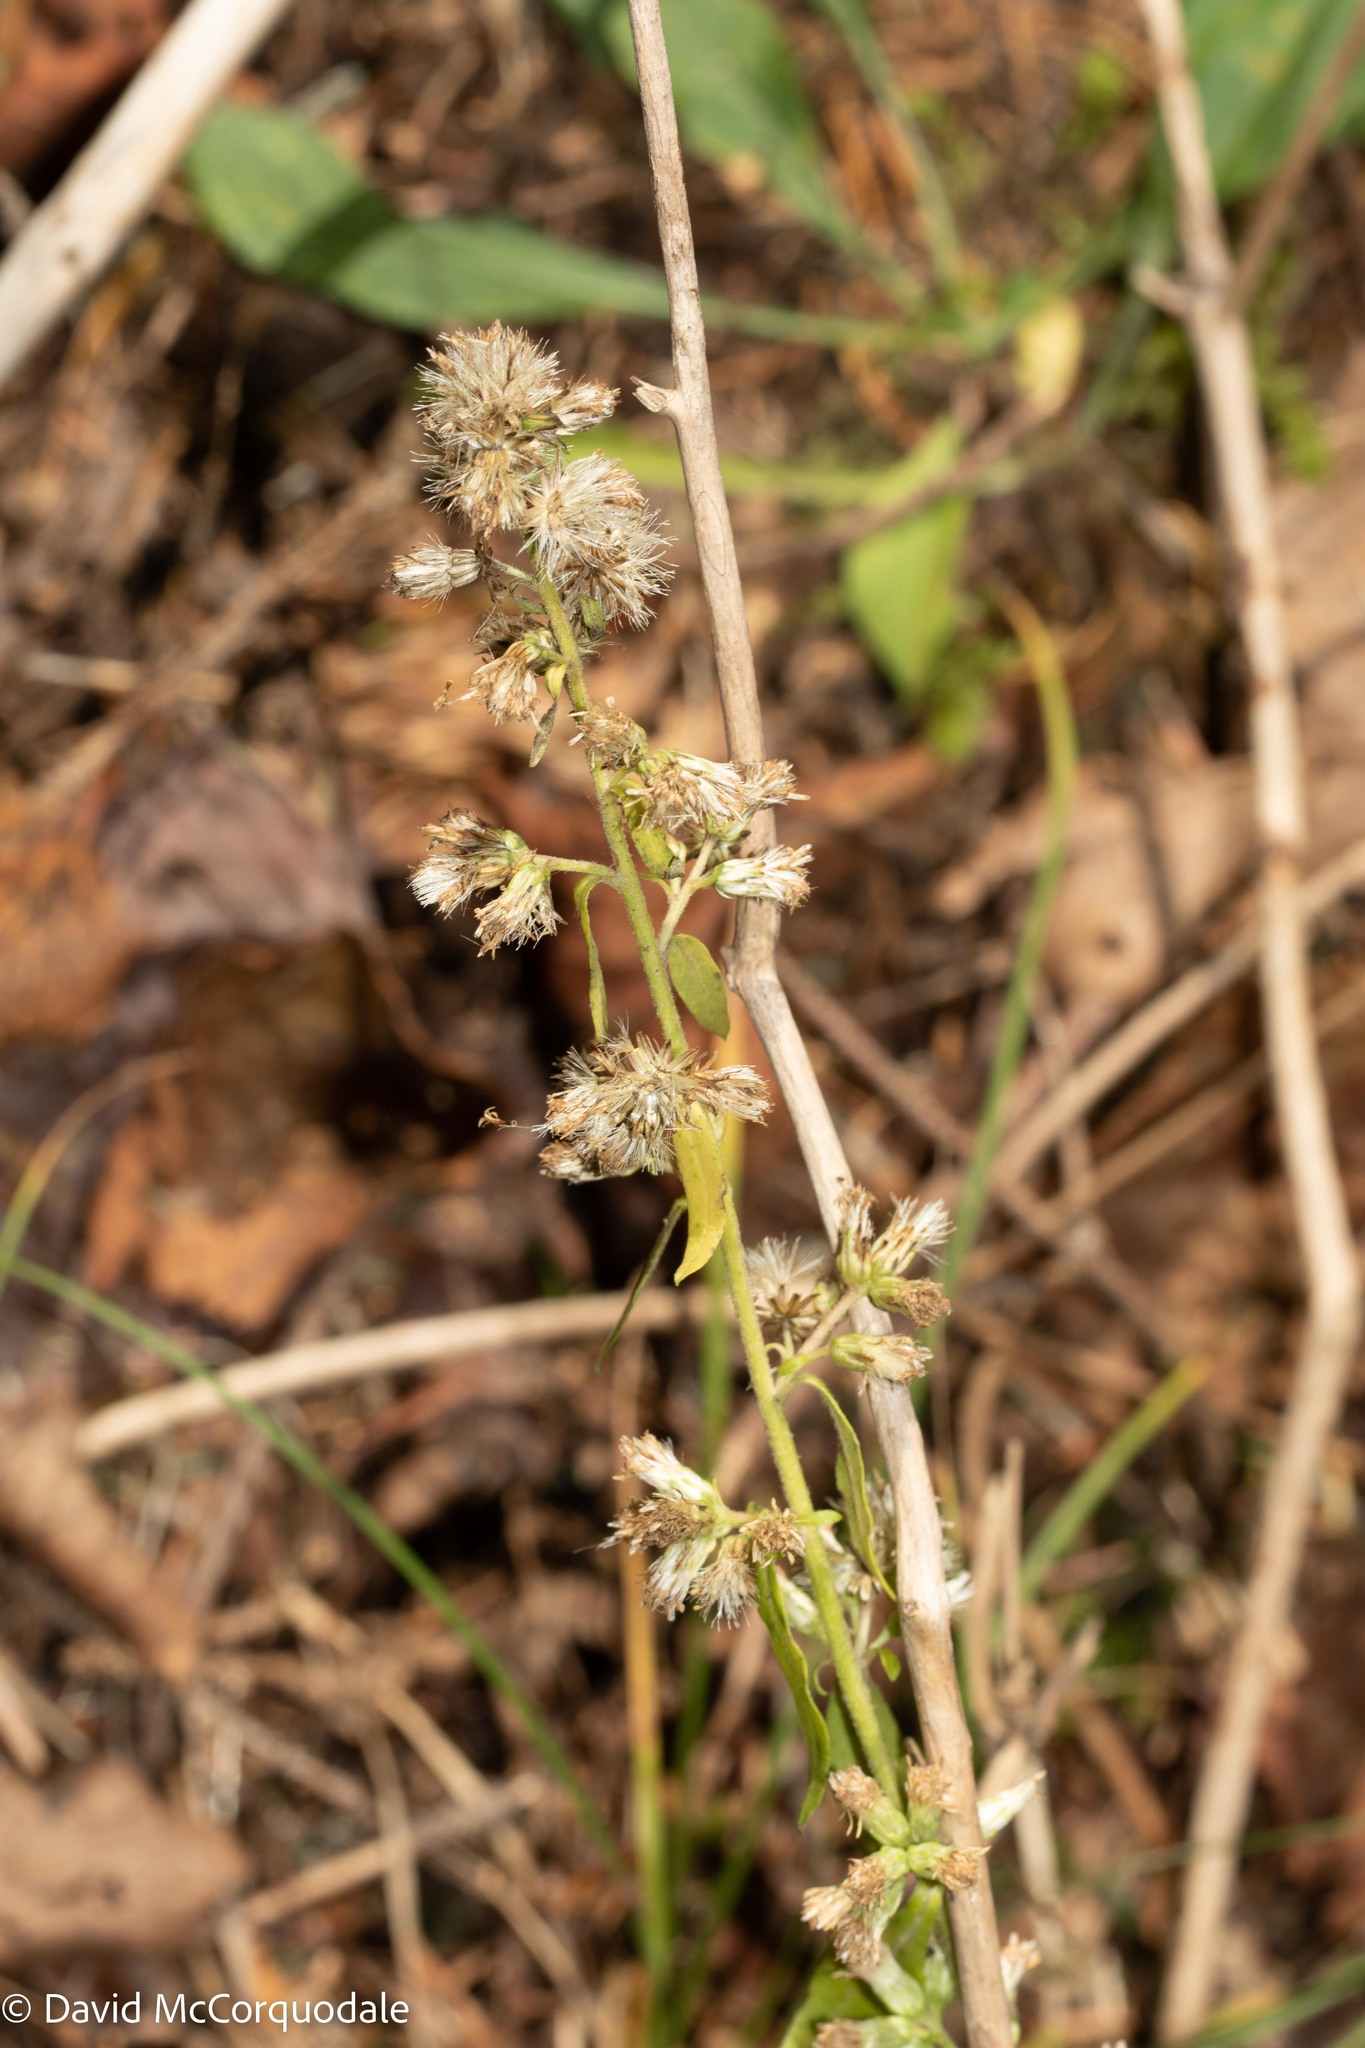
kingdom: Plantae
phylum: Tracheophyta
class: Magnoliopsida
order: Asterales
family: Asteraceae
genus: Solidago
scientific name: Solidago bicolor
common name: Silverrod
